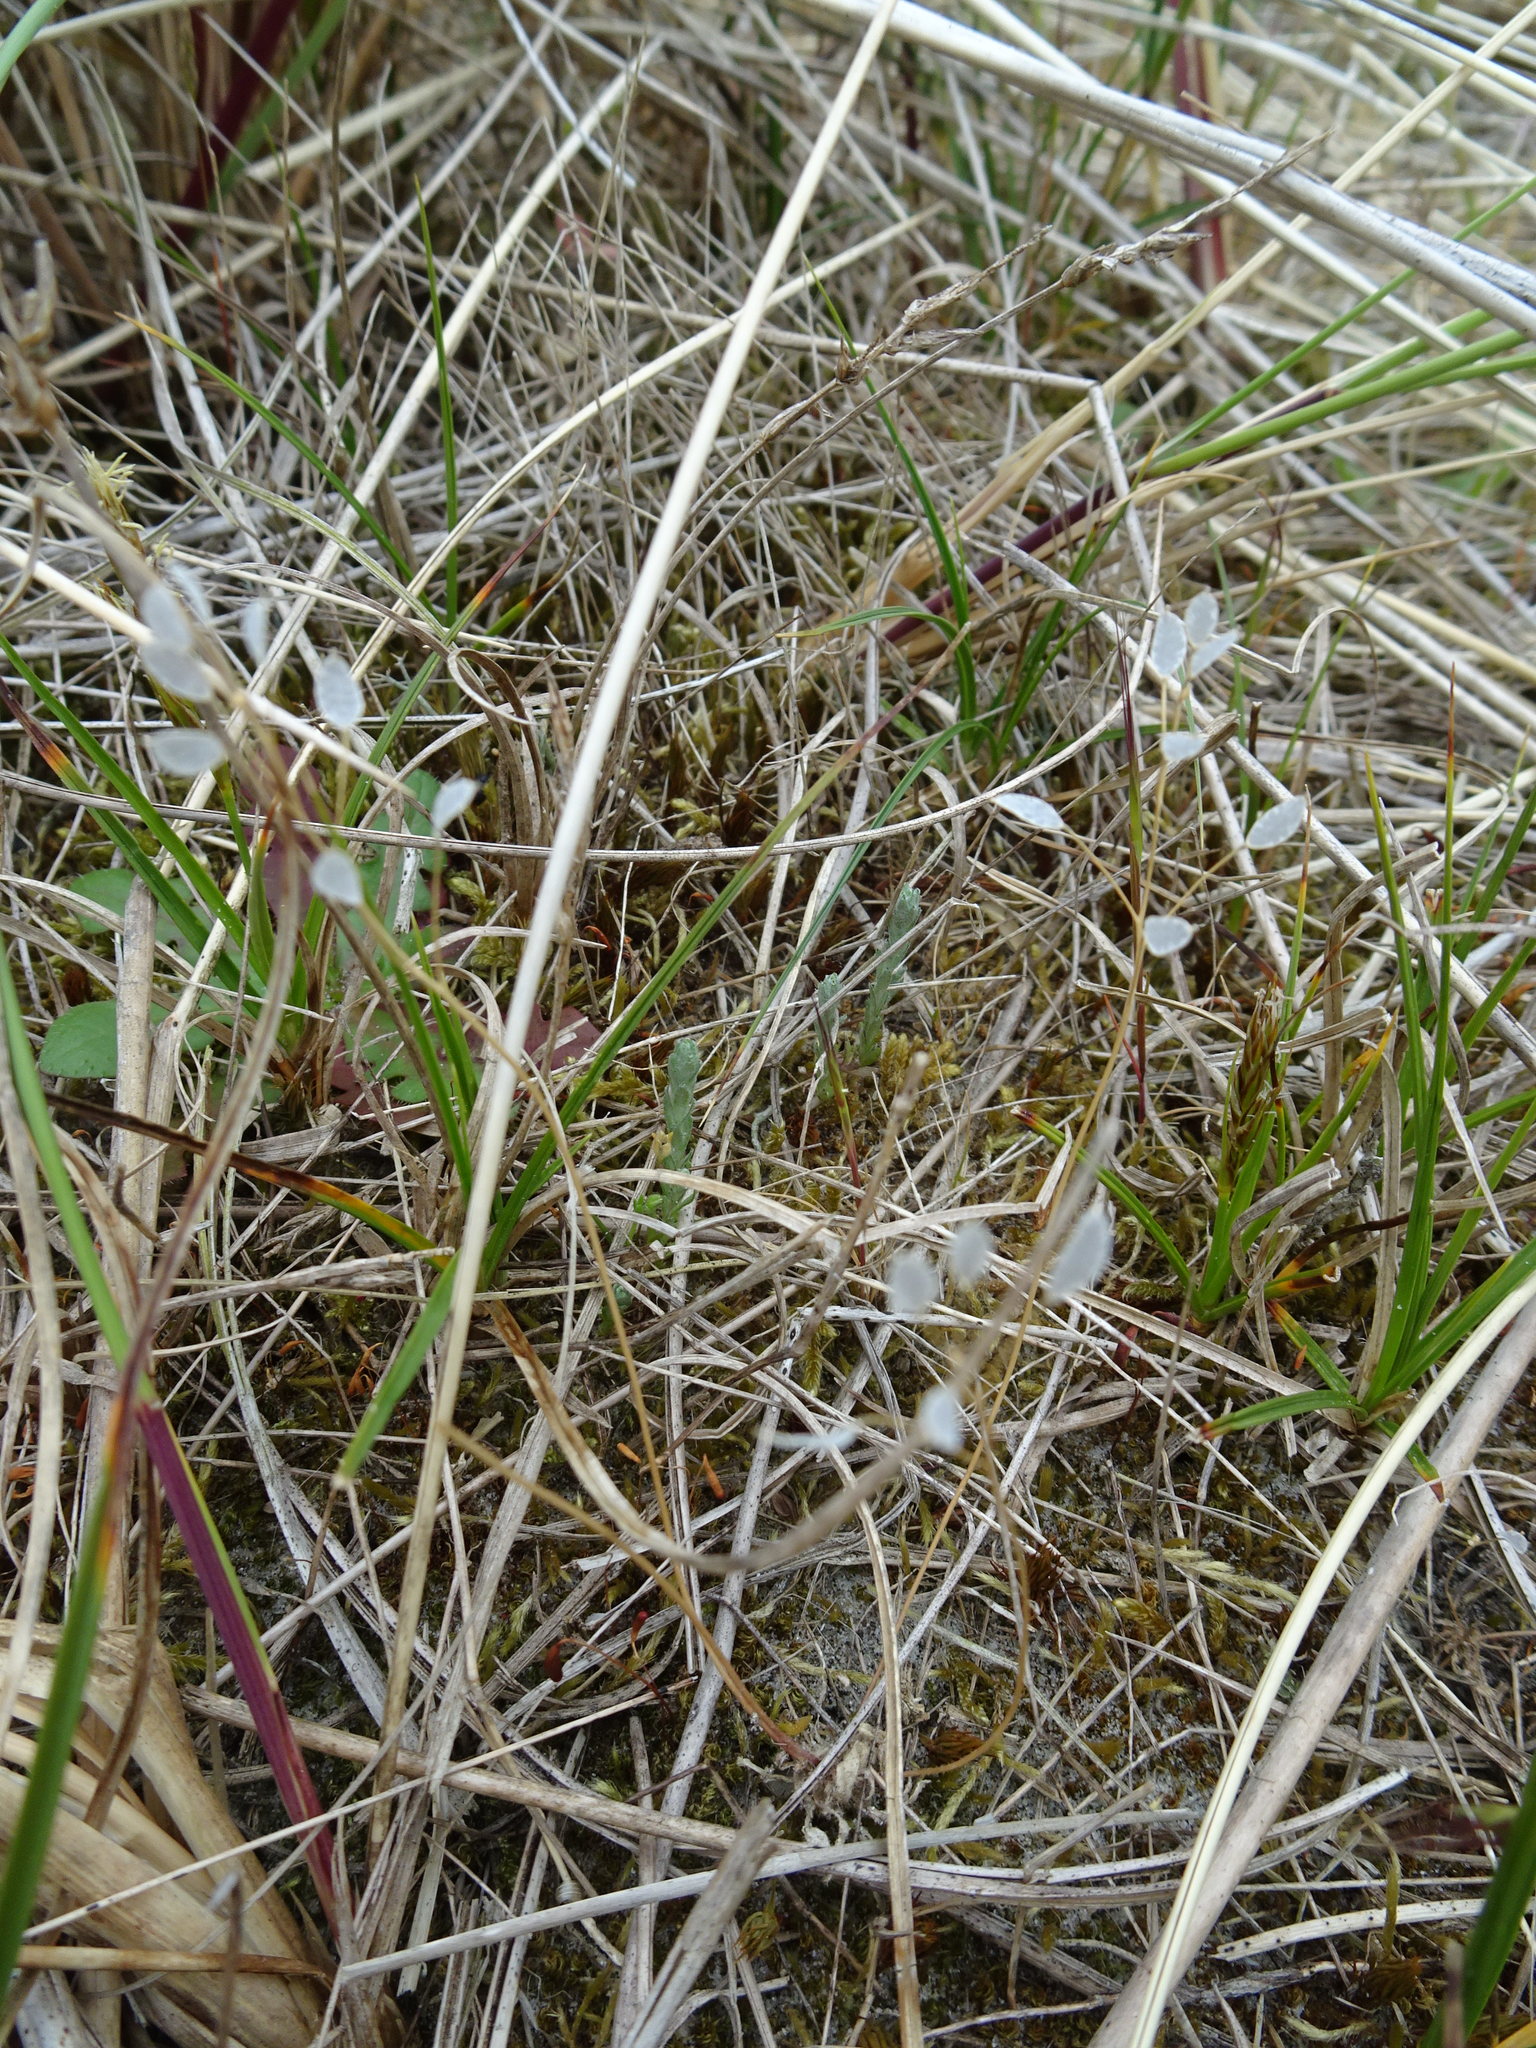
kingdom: Plantae
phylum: Tracheophyta
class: Magnoliopsida
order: Brassicales
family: Brassicaceae
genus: Draba
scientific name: Draba verna
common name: Spring draba
